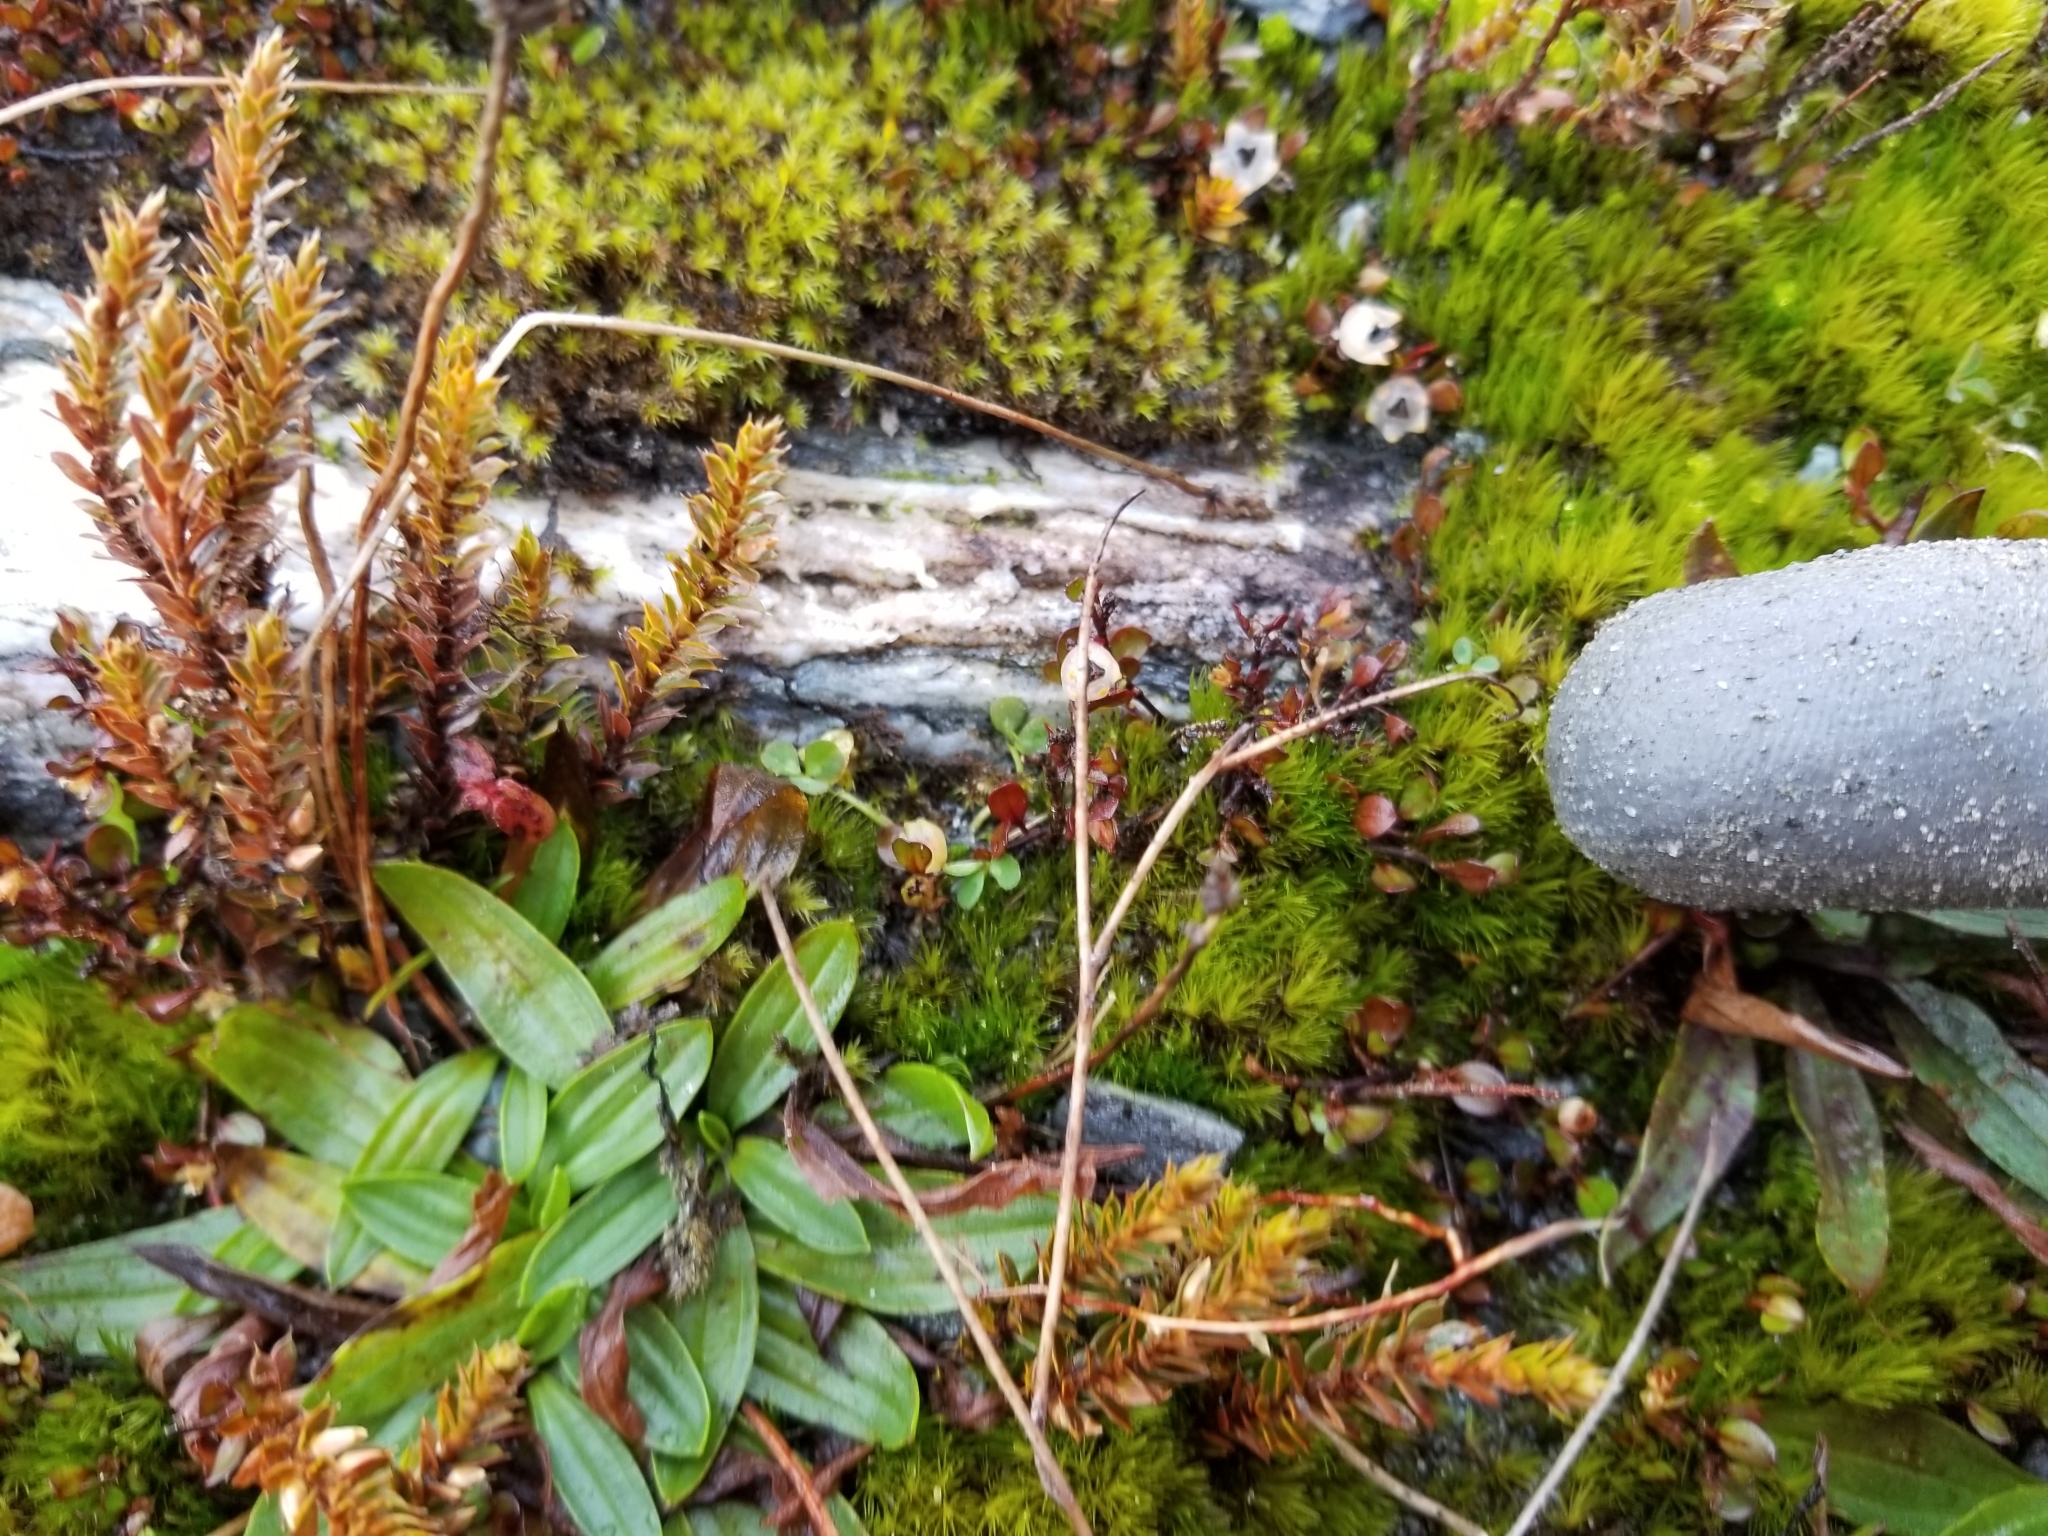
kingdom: Plantae
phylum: Tracheophyta
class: Magnoliopsida
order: Caryophyllales
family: Polygonaceae
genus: Muehlenbeckia
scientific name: Muehlenbeckia axillaris
